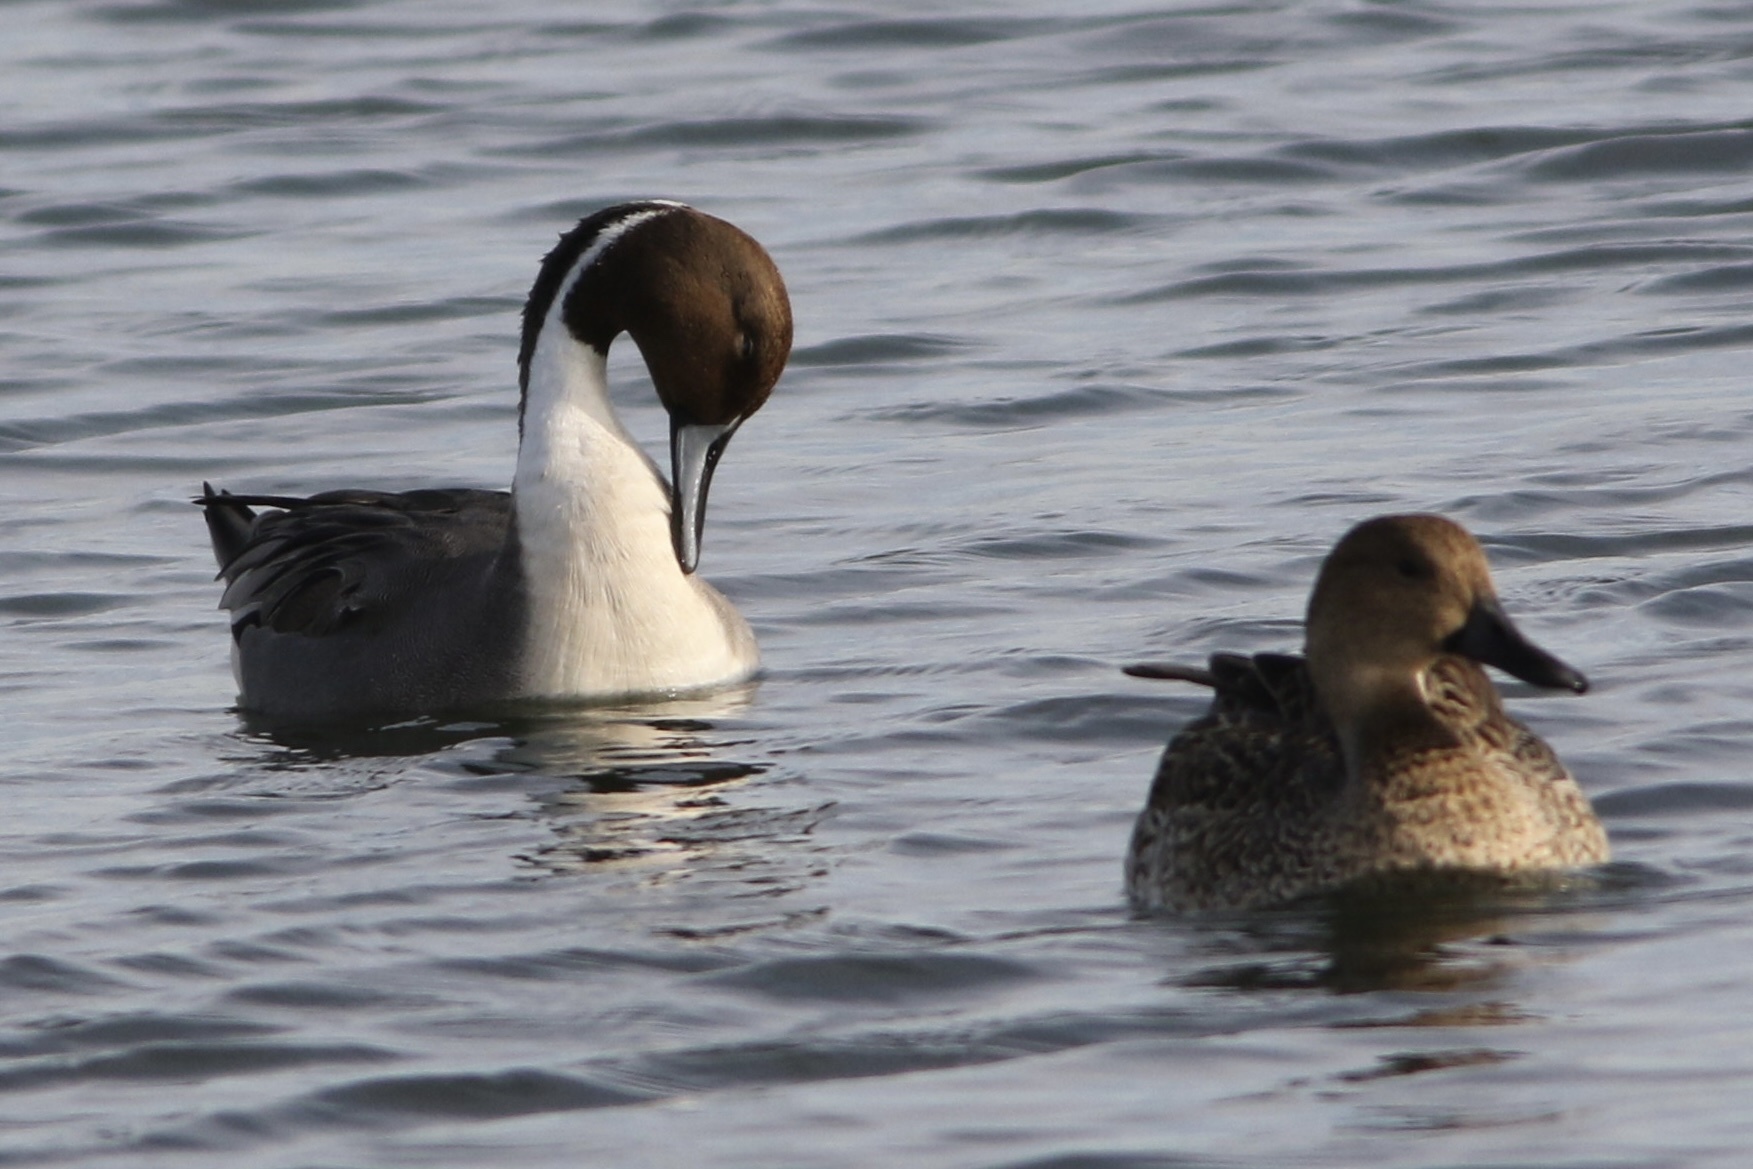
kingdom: Animalia
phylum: Chordata
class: Aves
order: Anseriformes
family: Anatidae
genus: Anas
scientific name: Anas acuta
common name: Northern pintail
